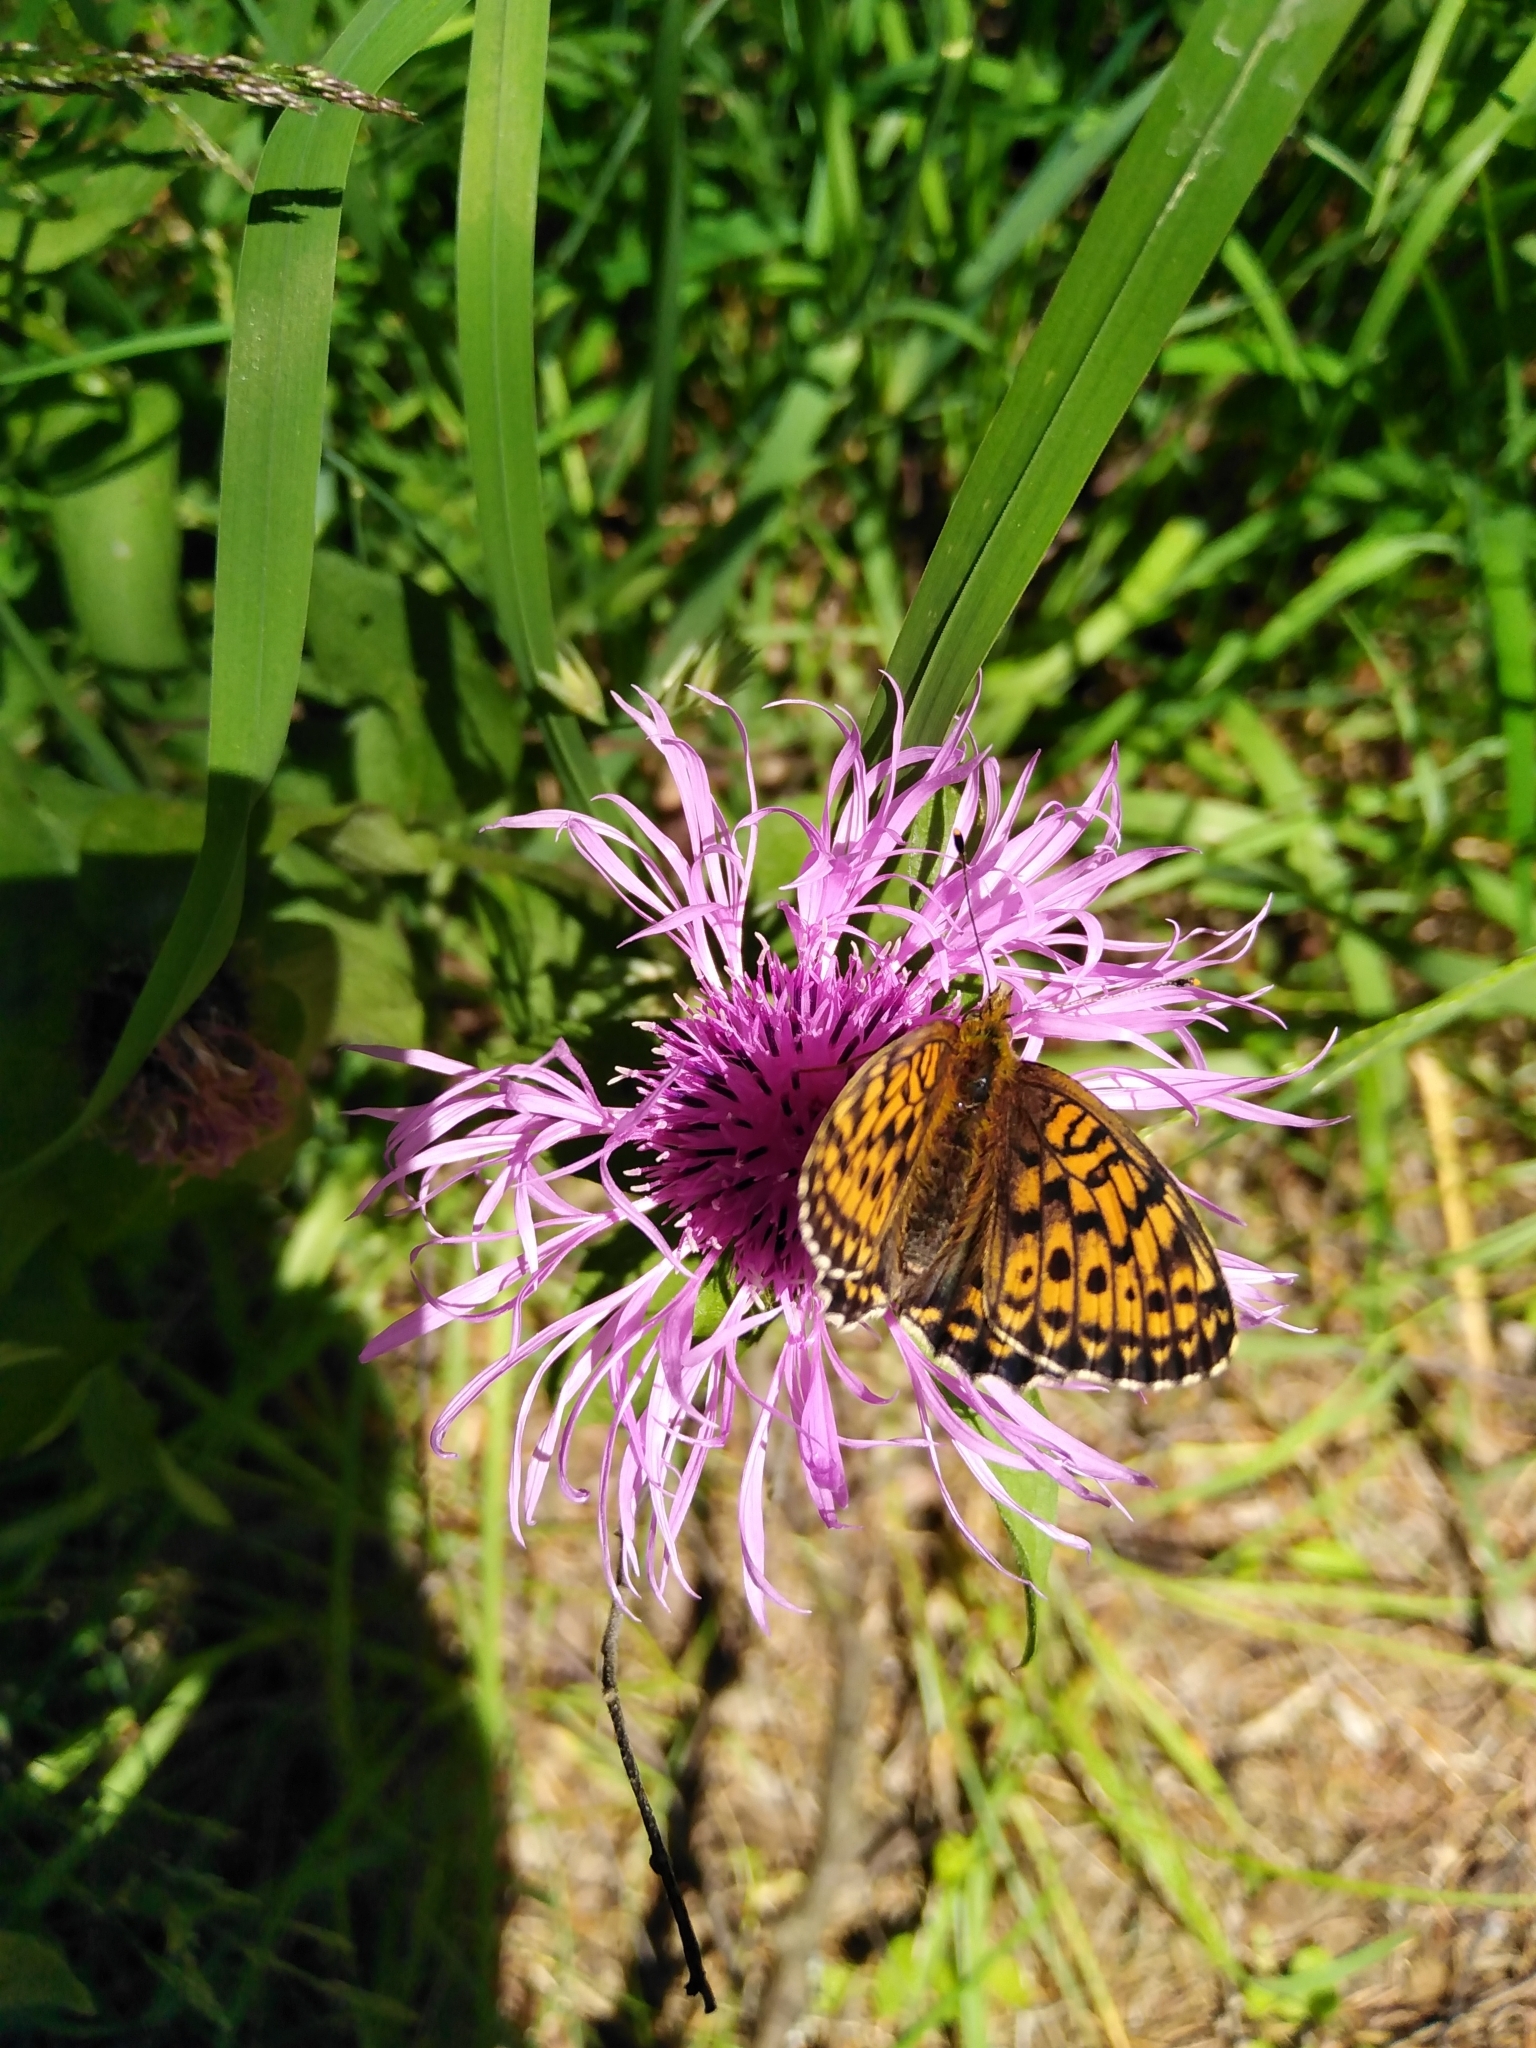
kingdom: Animalia
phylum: Arthropoda
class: Insecta
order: Lepidoptera
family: Nymphalidae
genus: Brenthis
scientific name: Brenthis ino
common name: Lesser marbled fritillary
